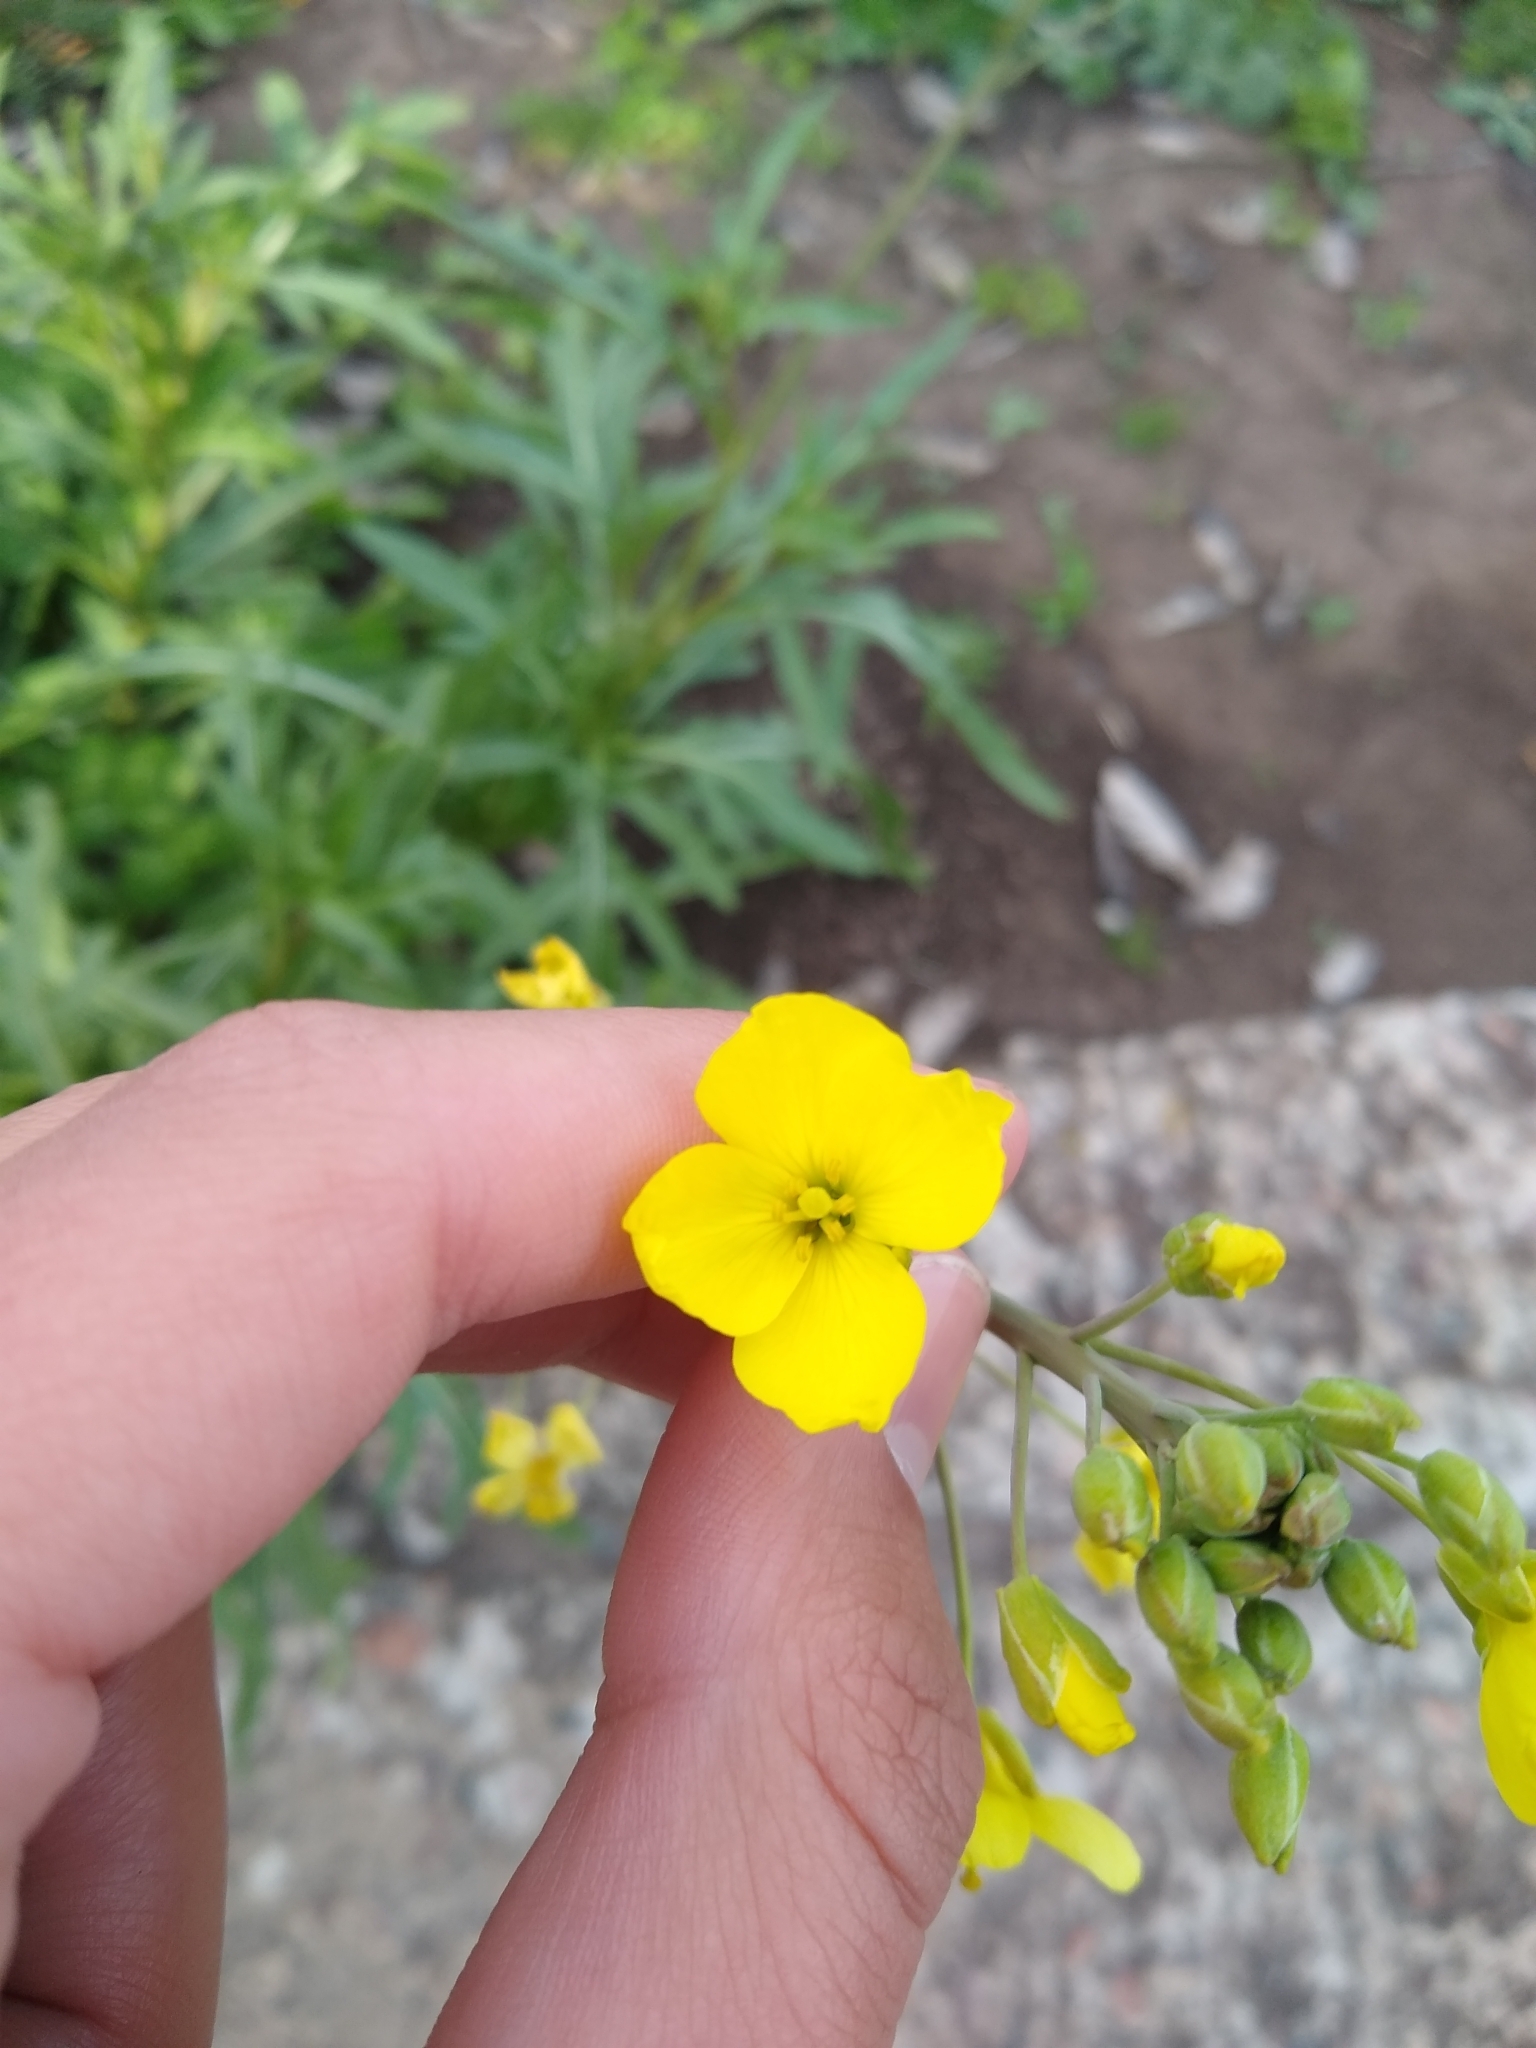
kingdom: Plantae
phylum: Tracheophyta
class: Magnoliopsida
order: Brassicales
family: Brassicaceae
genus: Diplotaxis
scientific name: Diplotaxis tenuifolia
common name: Perennial wall-rocket
